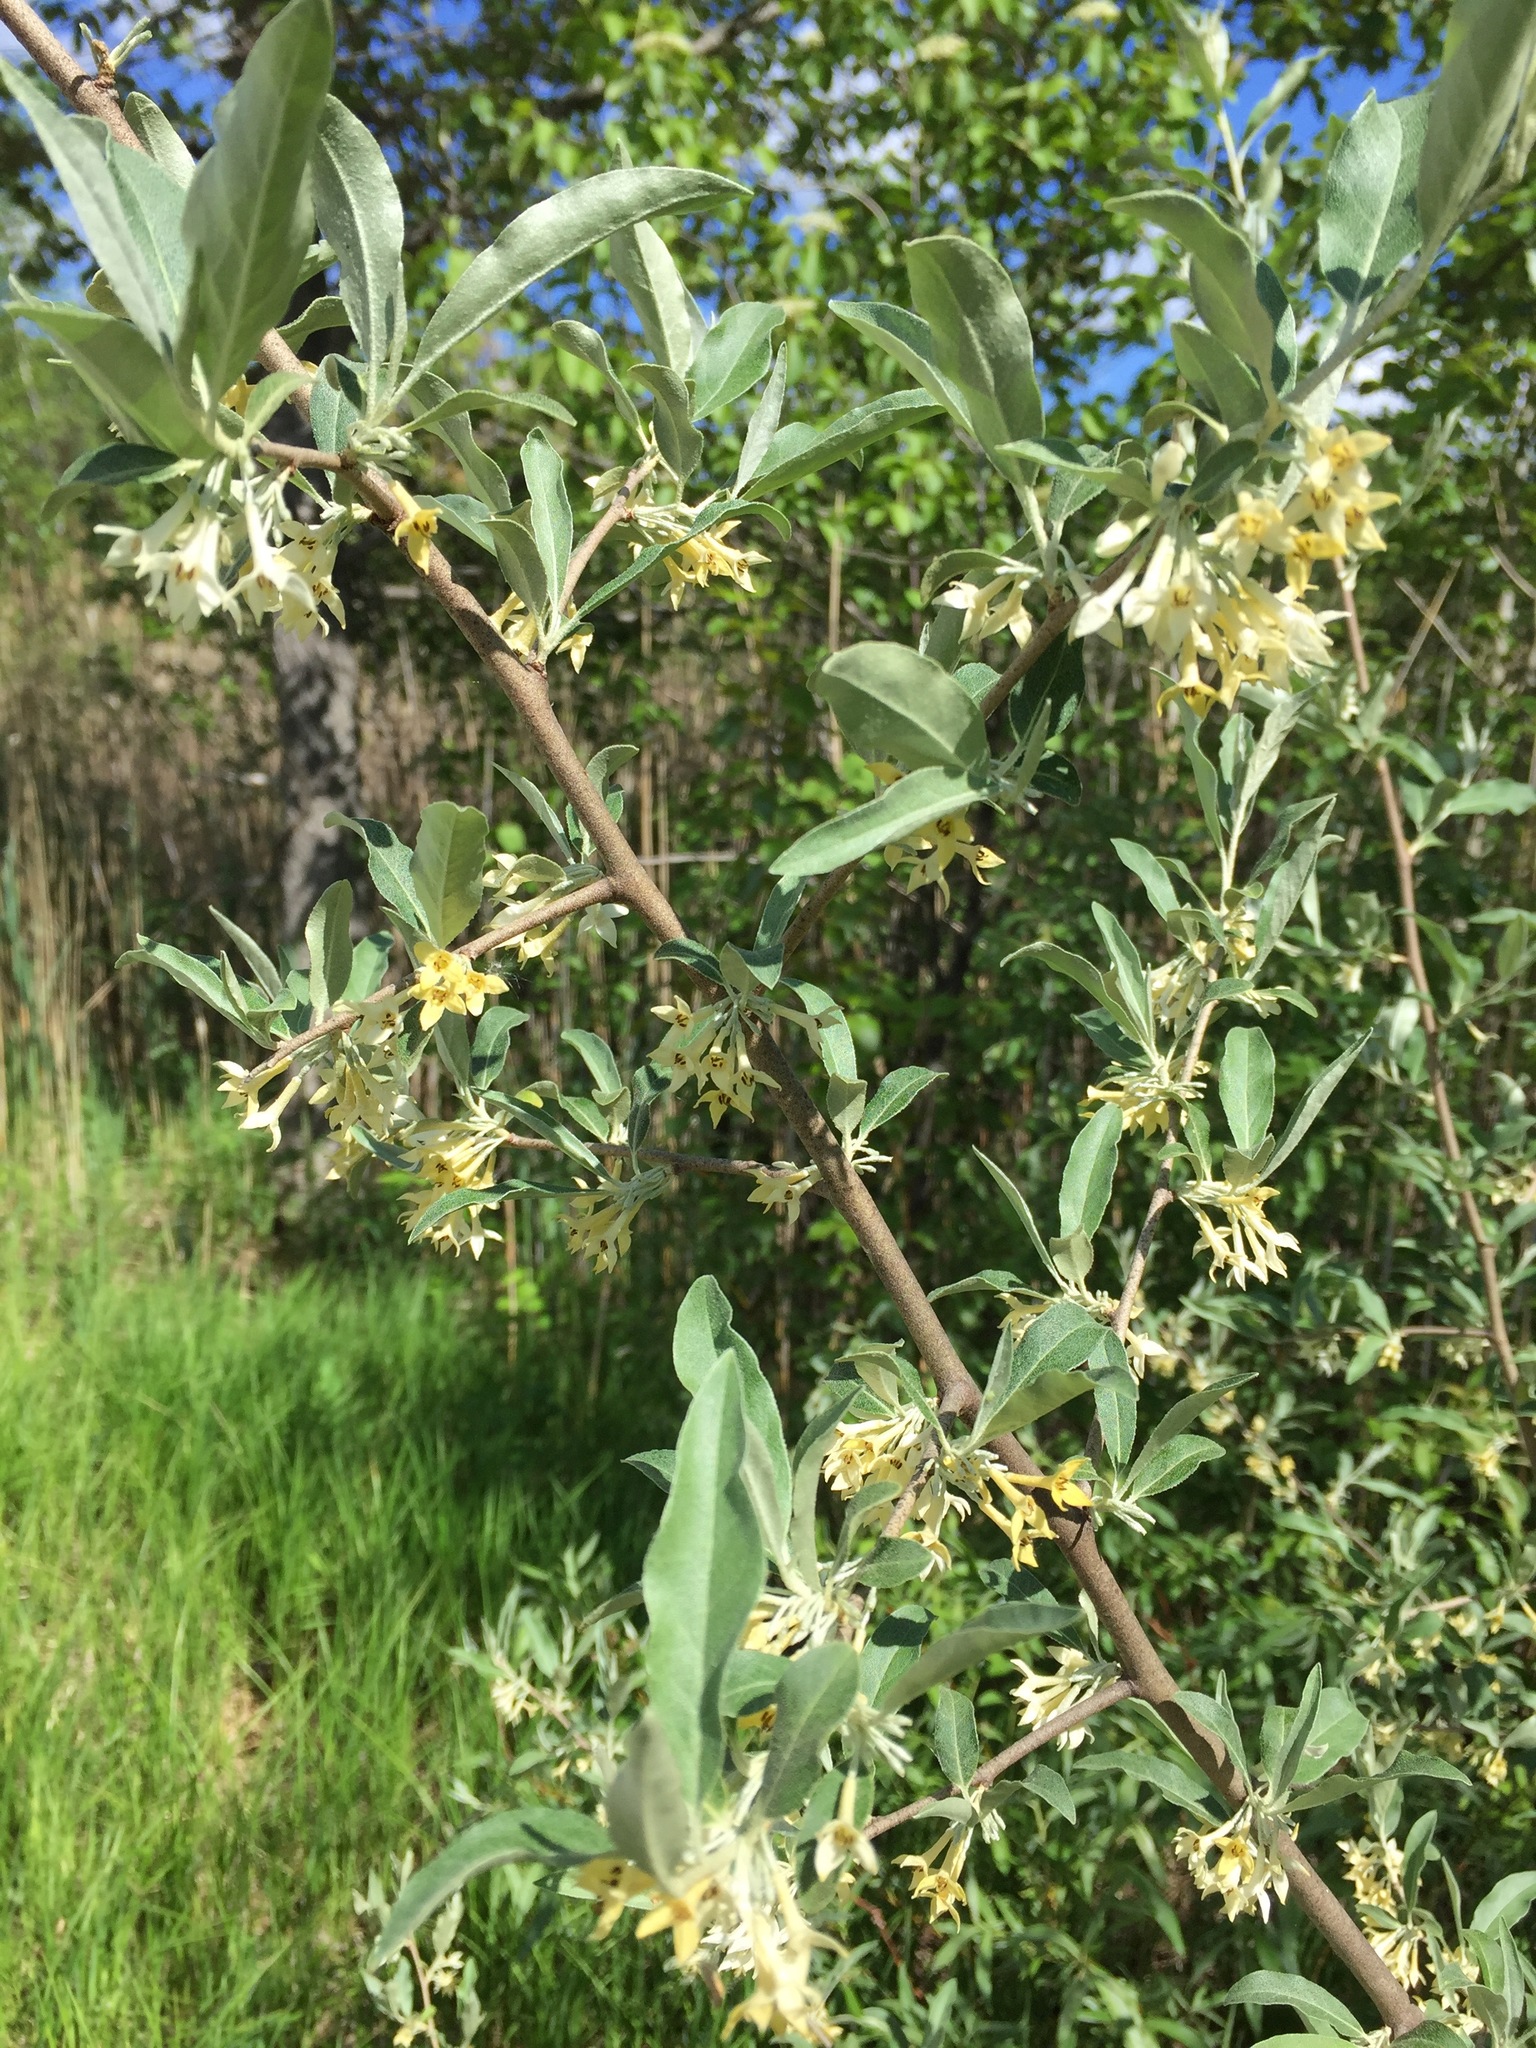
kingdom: Plantae
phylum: Tracheophyta
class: Magnoliopsida
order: Rosales
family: Elaeagnaceae
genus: Elaeagnus
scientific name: Elaeagnus umbellata
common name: Autumn olive
